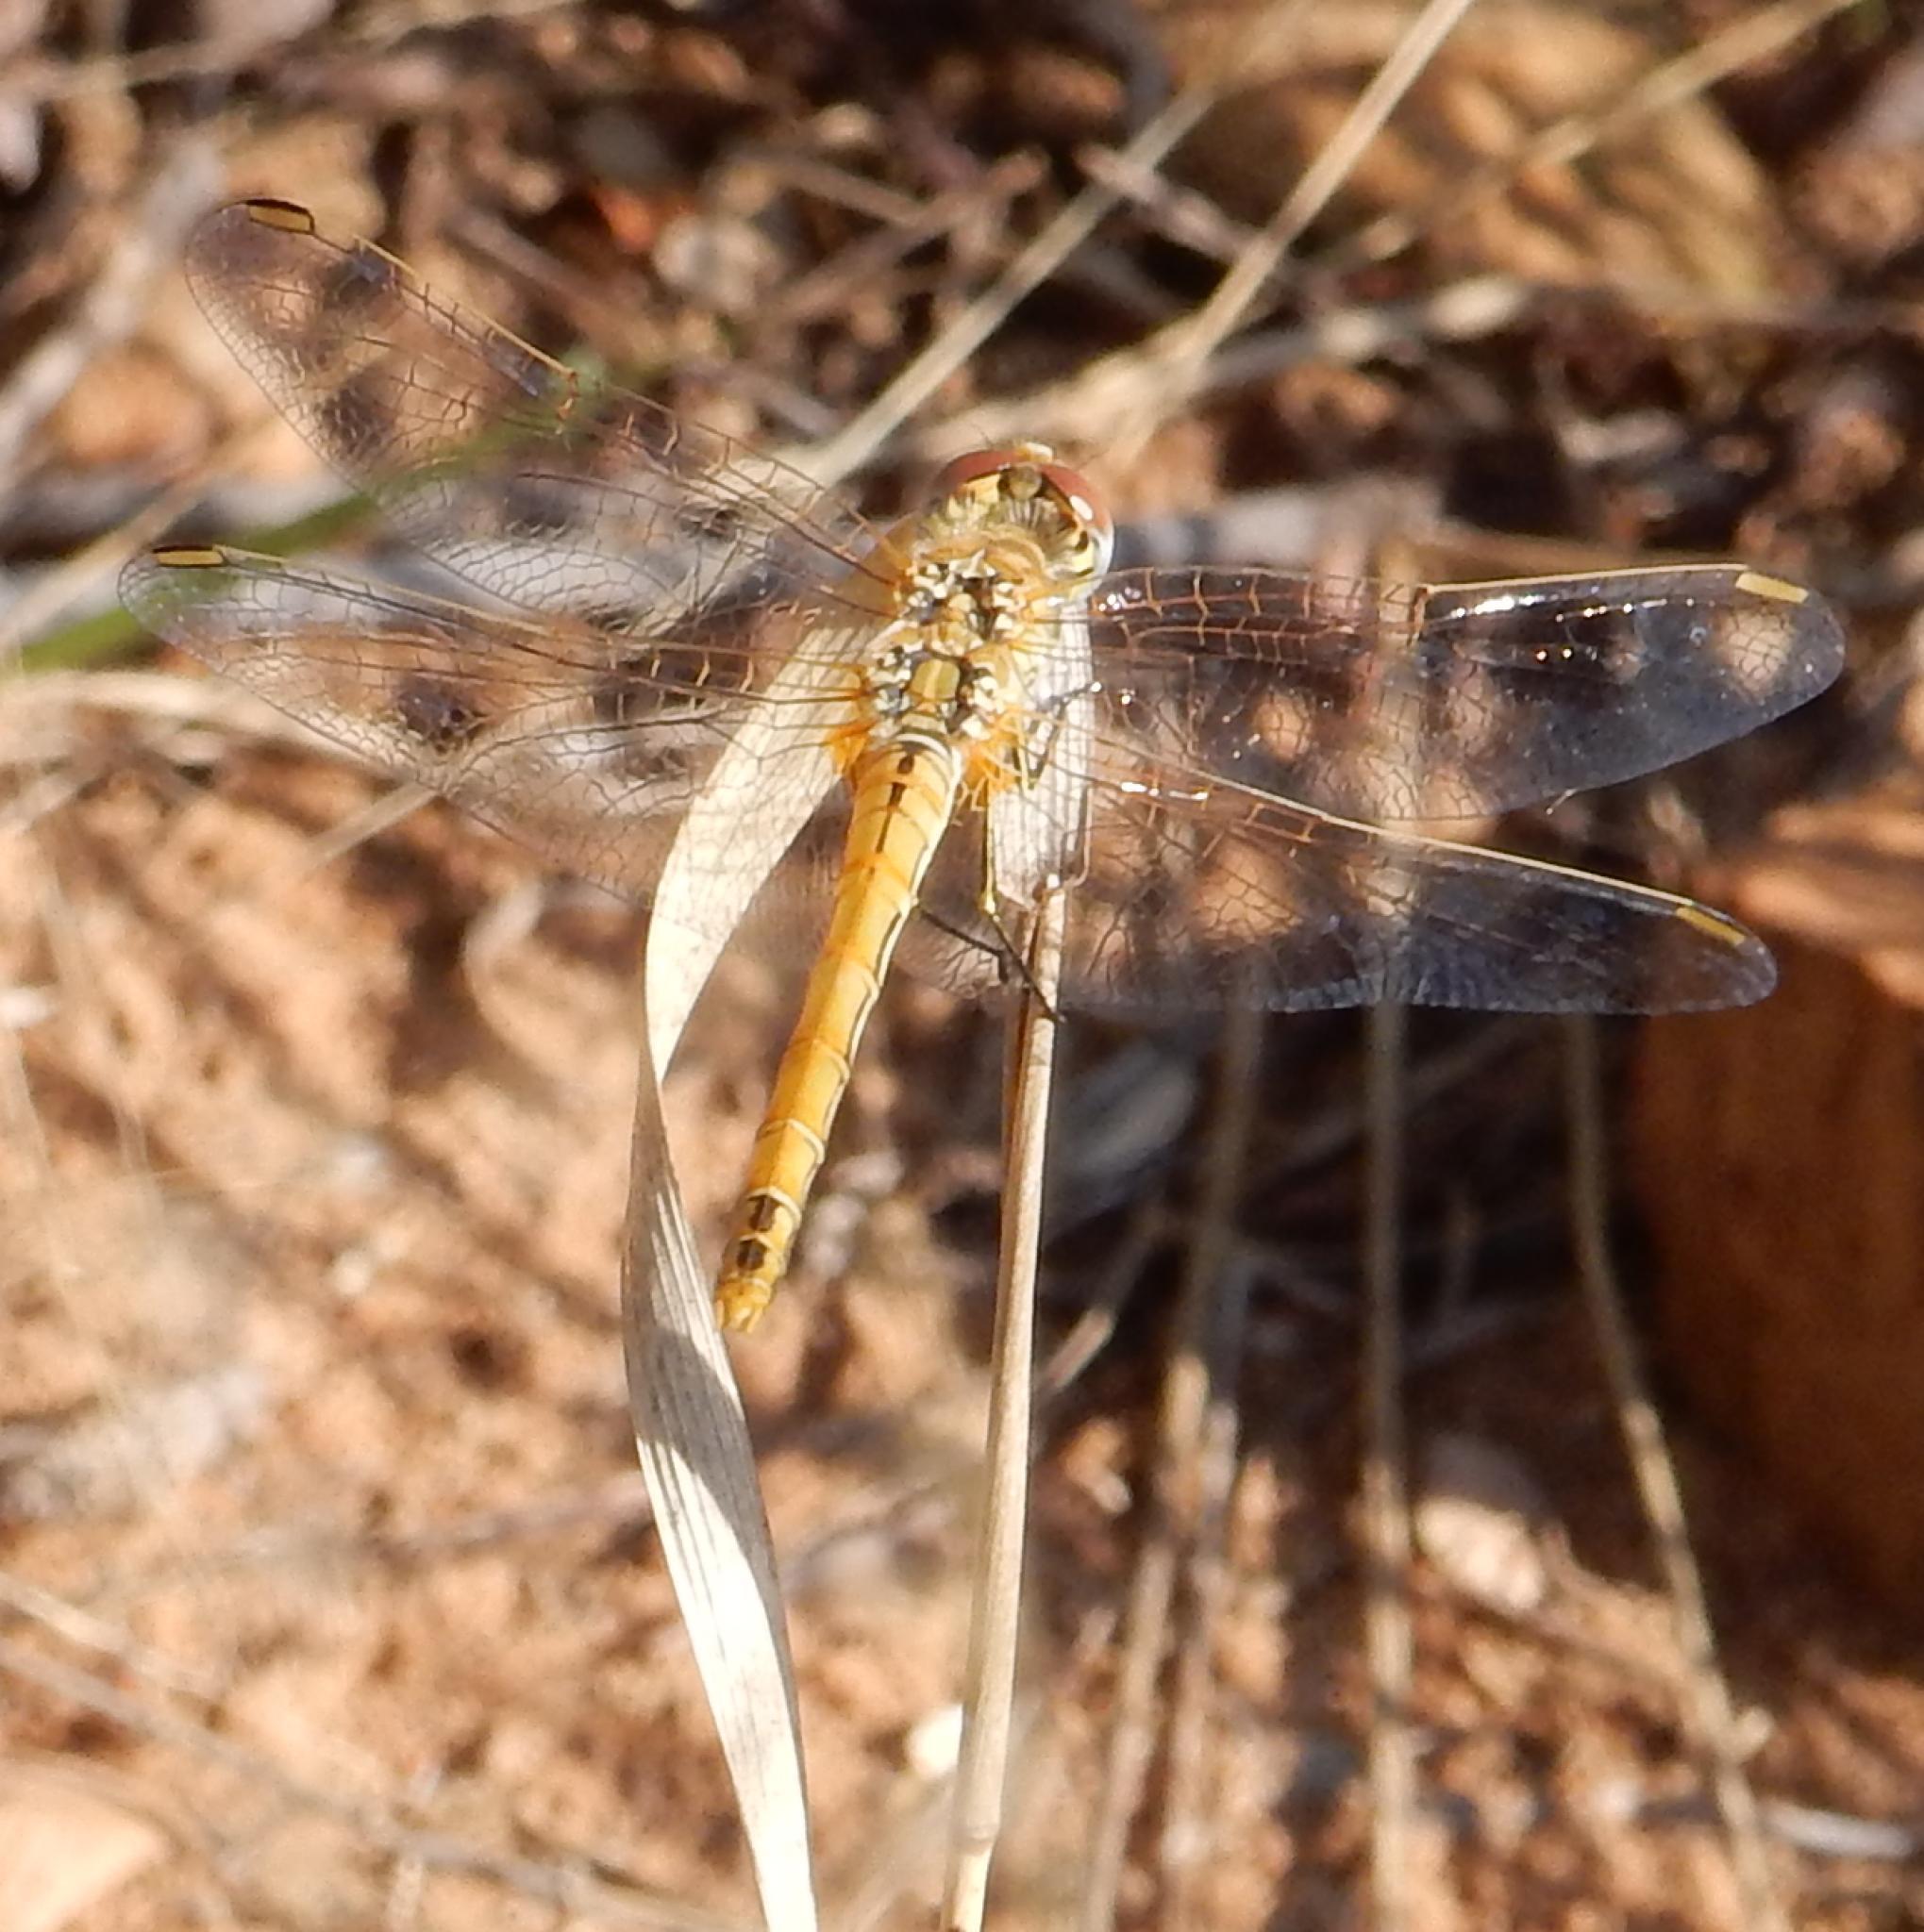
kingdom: Animalia
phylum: Arthropoda
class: Insecta
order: Odonata
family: Libellulidae
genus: Sympetrum
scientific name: Sympetrum fonscolombii
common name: Red-veined darter
